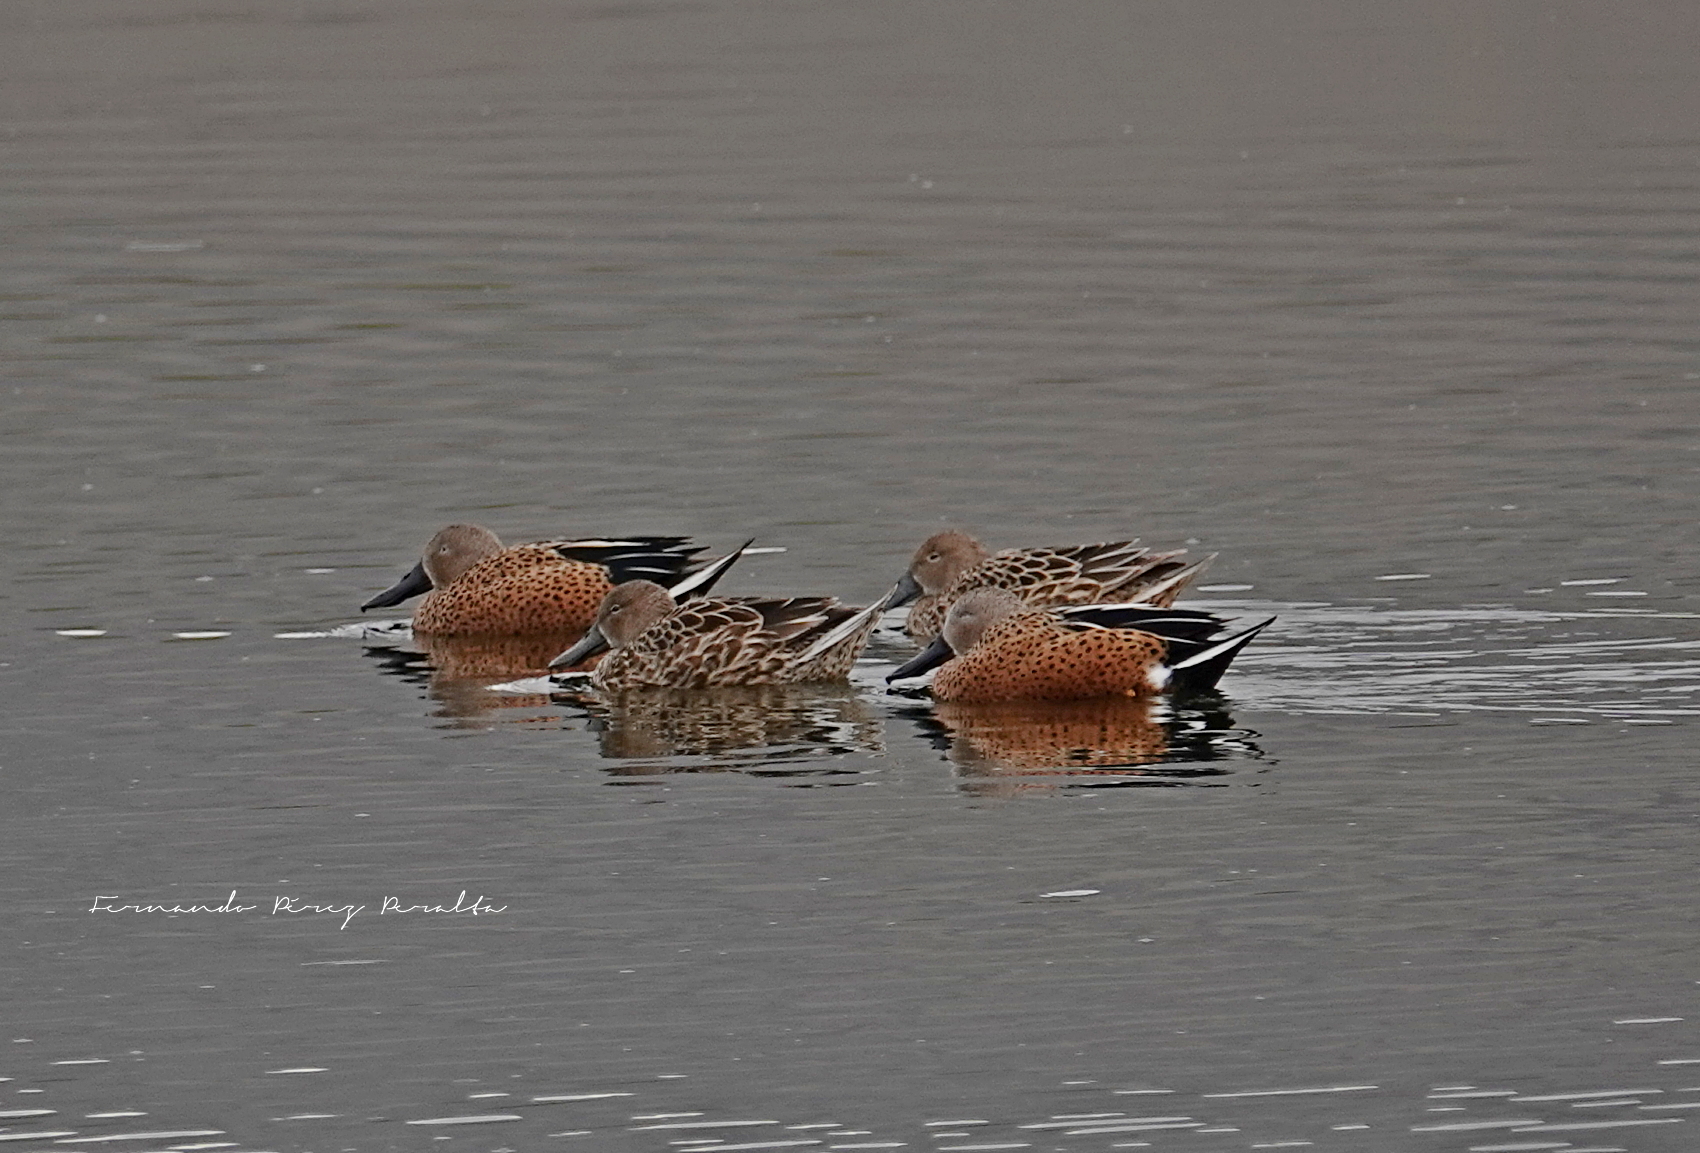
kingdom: Animalia
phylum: Chordata
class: Aves
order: Anseriformes
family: Anatidae
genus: Spatula
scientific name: Spatula platalea
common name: Red shoveler
